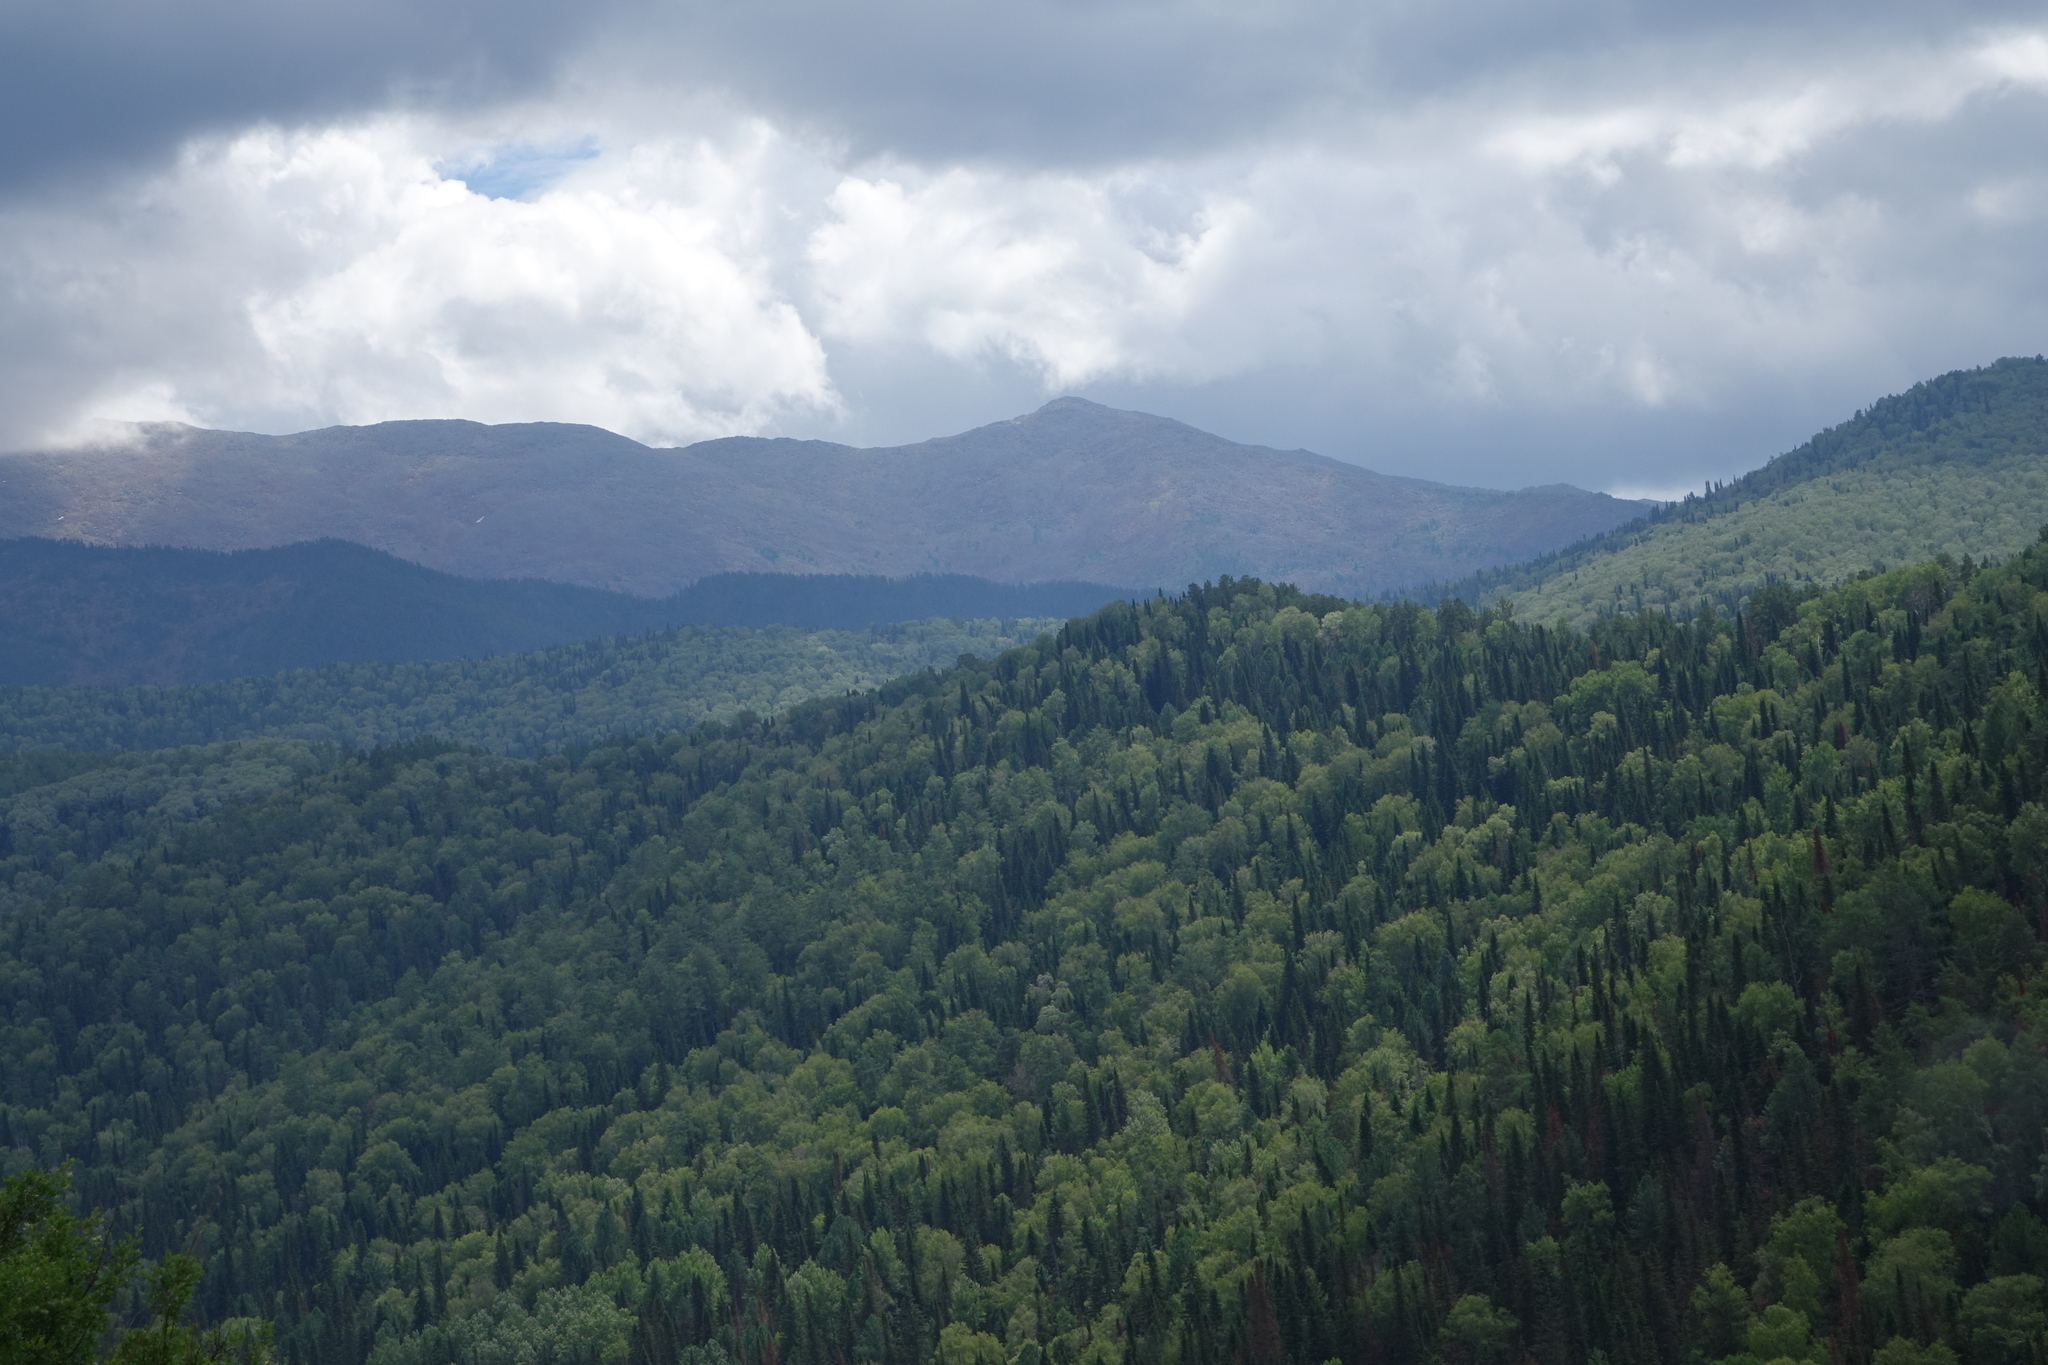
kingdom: Plantae
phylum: Tracheophyta
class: Pinopsida
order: Pinales
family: Pinaceae
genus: Abies
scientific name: Abies sibirica
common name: Siberian fir
